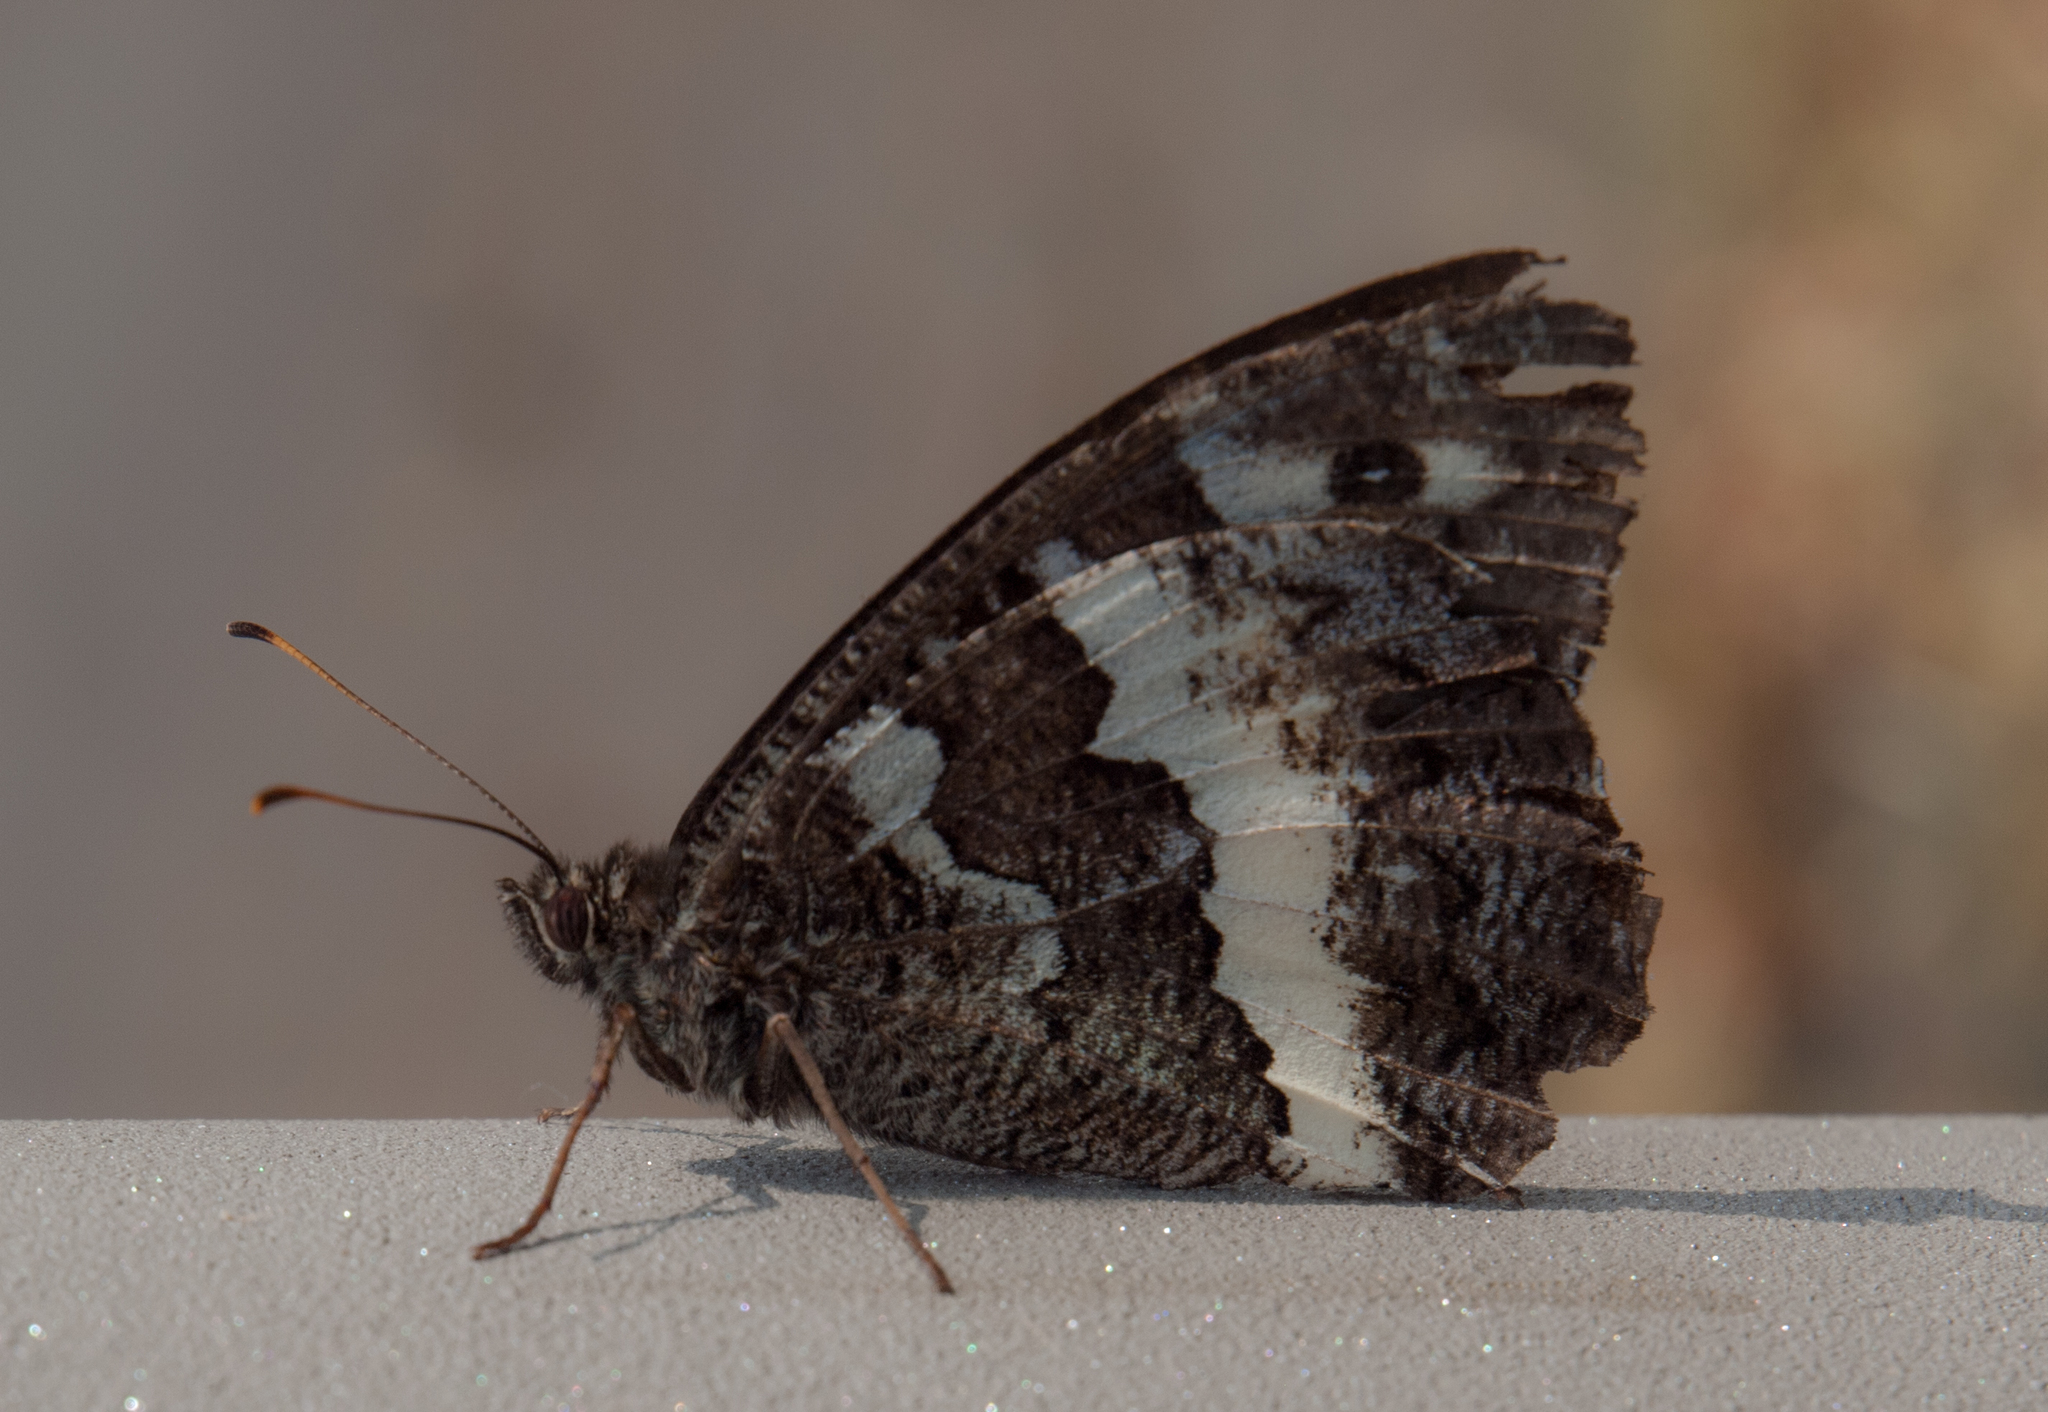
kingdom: Animalia
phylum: Arthropoda
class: Insecta
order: Lepidoptera
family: Lycaenidae
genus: Loweia
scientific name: Loweia tityrus
